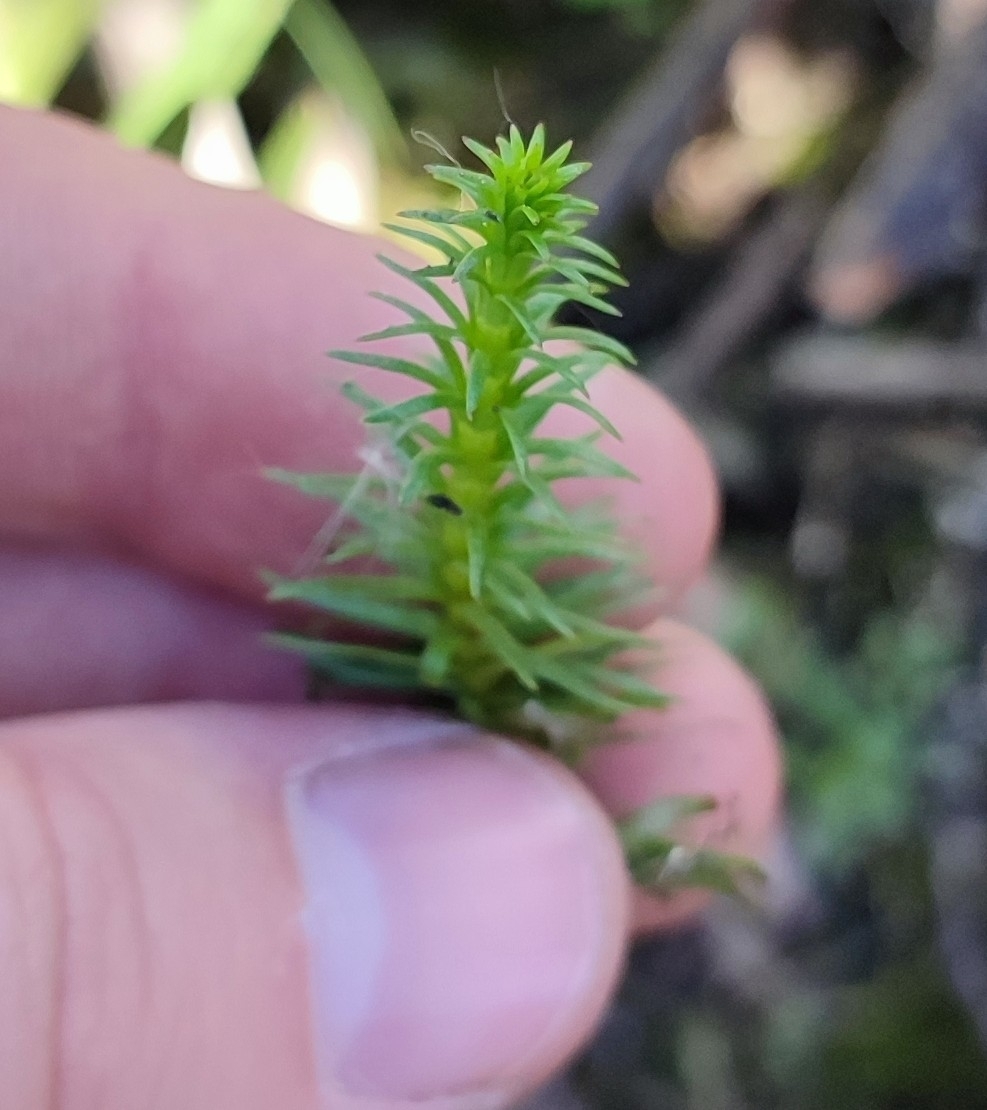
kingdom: Plantae
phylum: Tracheophyta
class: Magnoliopsida
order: Lamiales
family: Plantaginaceae
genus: Hippuris
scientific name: Hippuris vulgaris
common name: Mare's-tail
